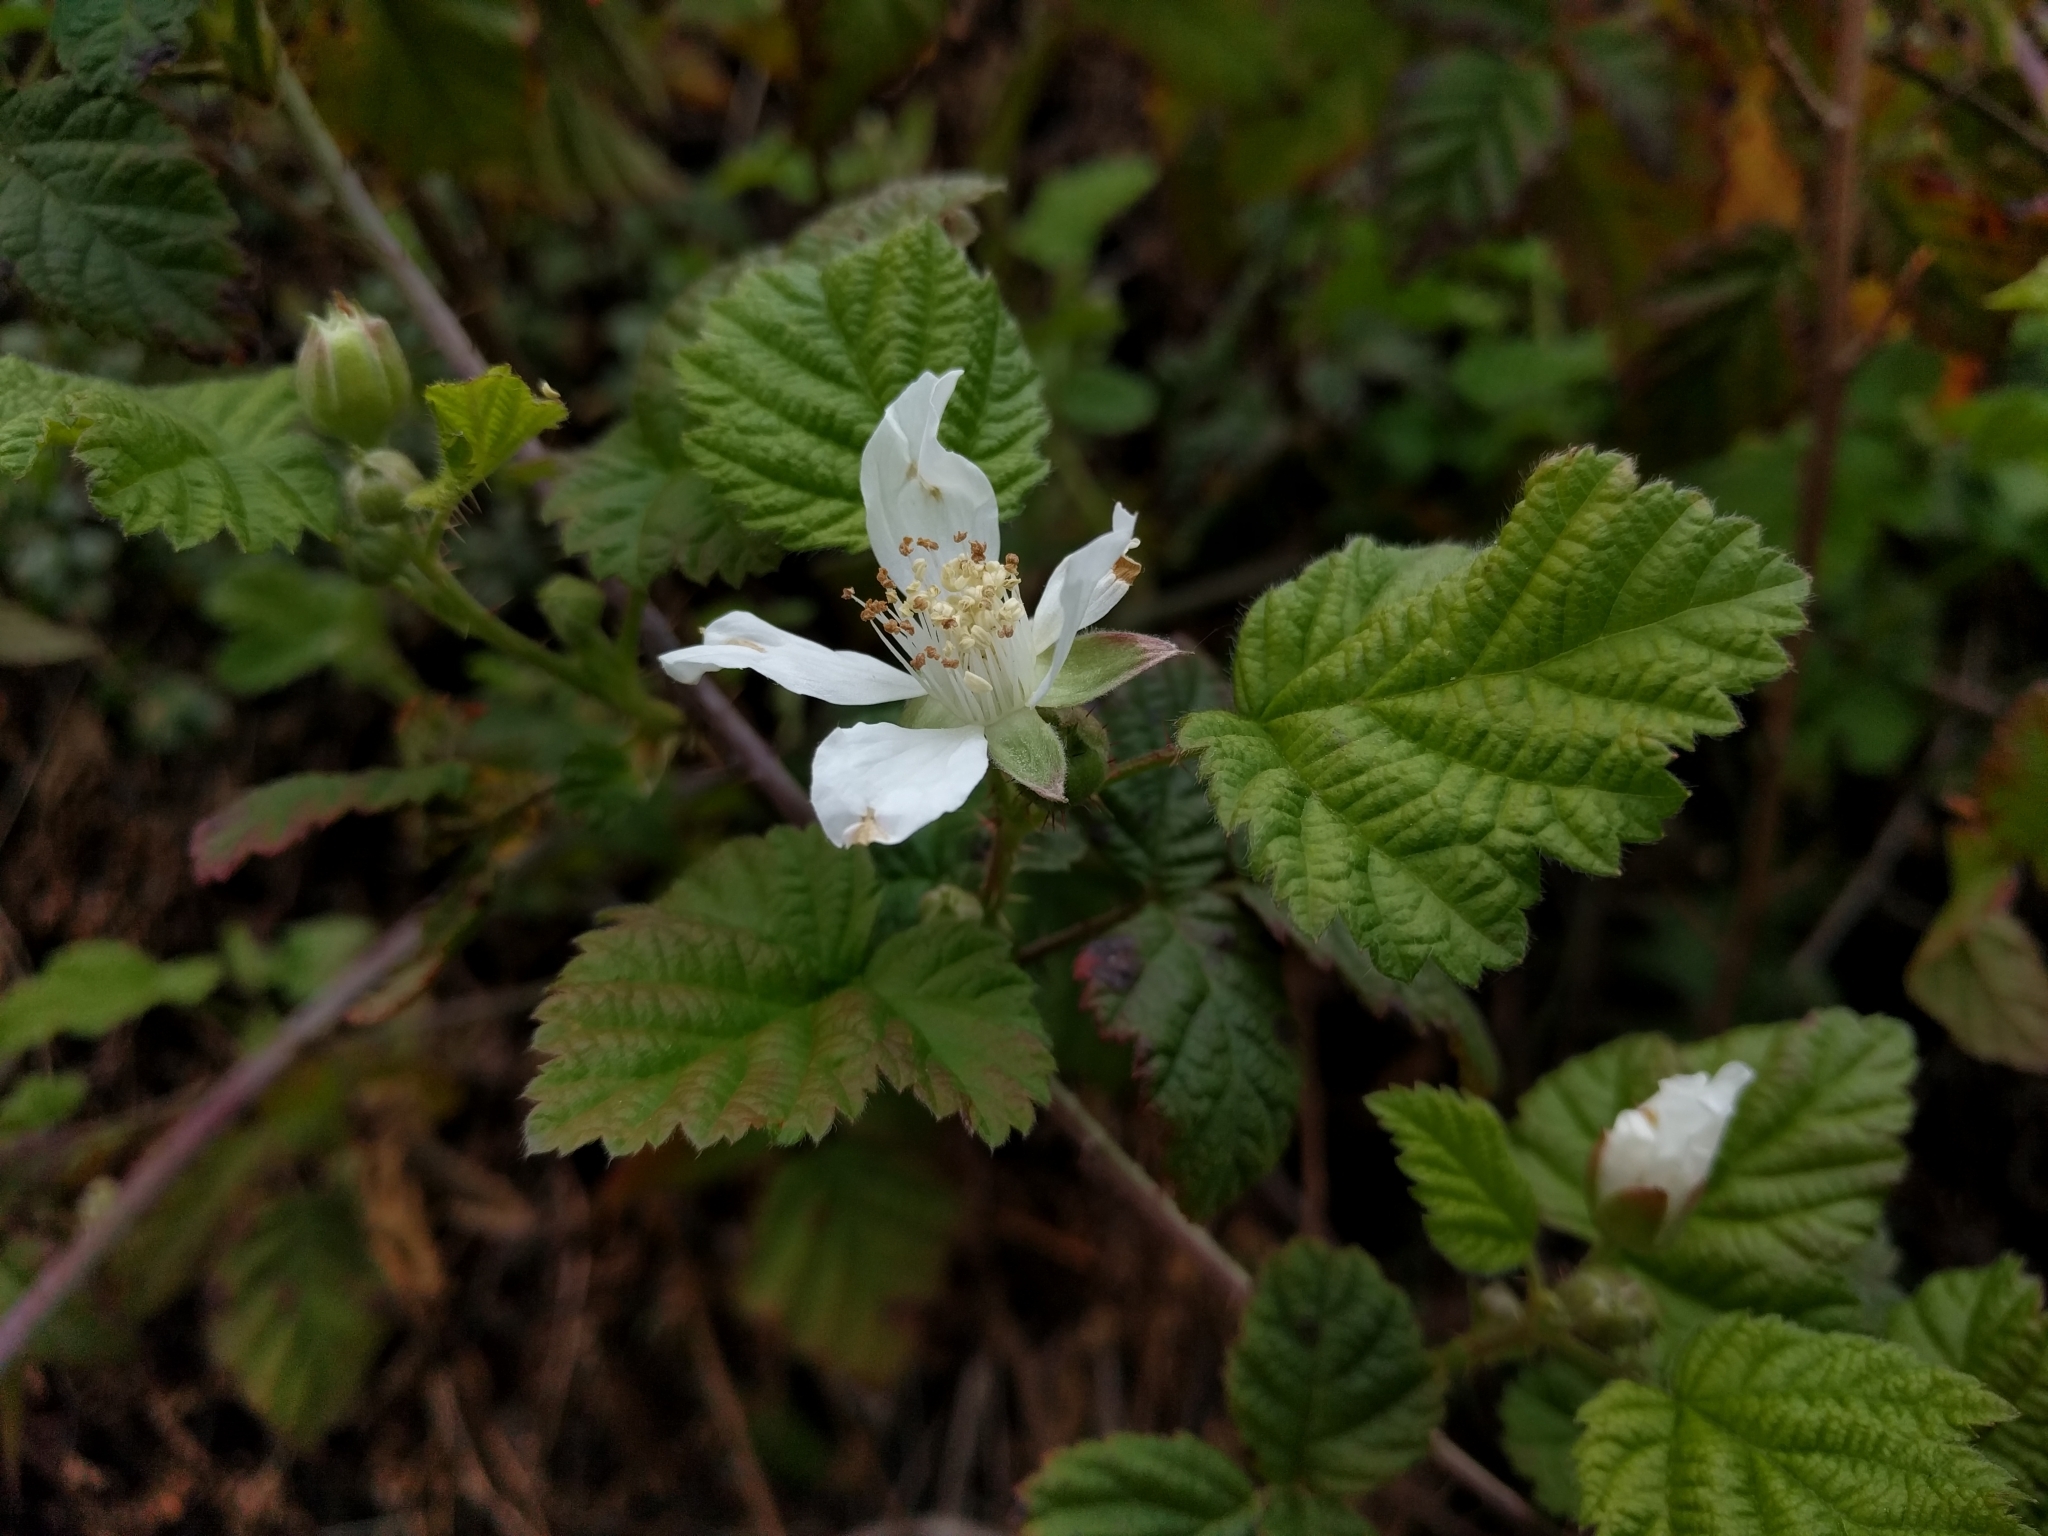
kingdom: Plantae
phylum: Tracheophyta
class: Magnoliopsida
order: Rosales
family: Rosaceae
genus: Rubus
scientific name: Rubus ursinus
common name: Pacific blackberry
